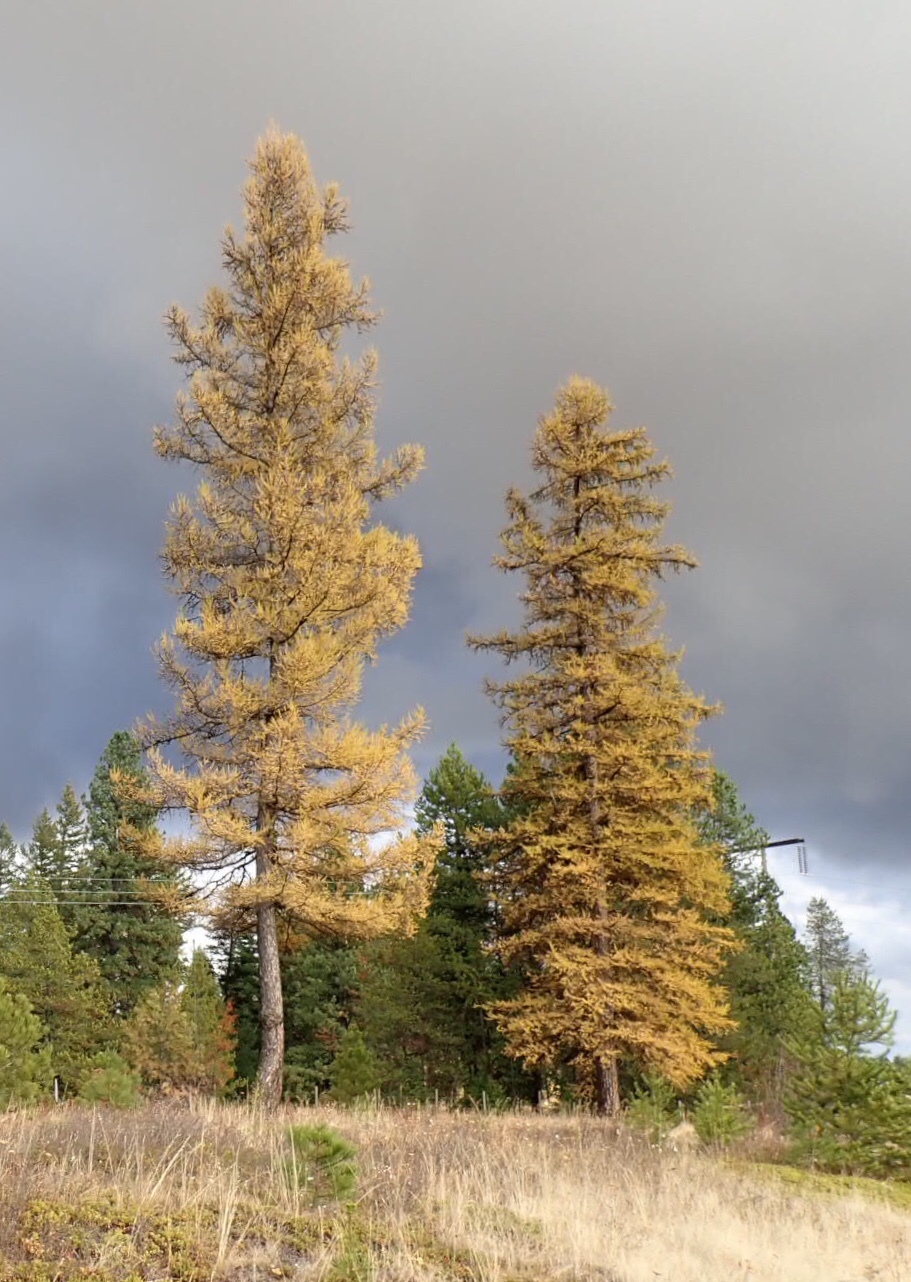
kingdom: Plantae
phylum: Tracheophyta
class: Pinopsida
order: Pinales
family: Pinaceae
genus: Larix
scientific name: Larix occidentalis
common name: Western larch
